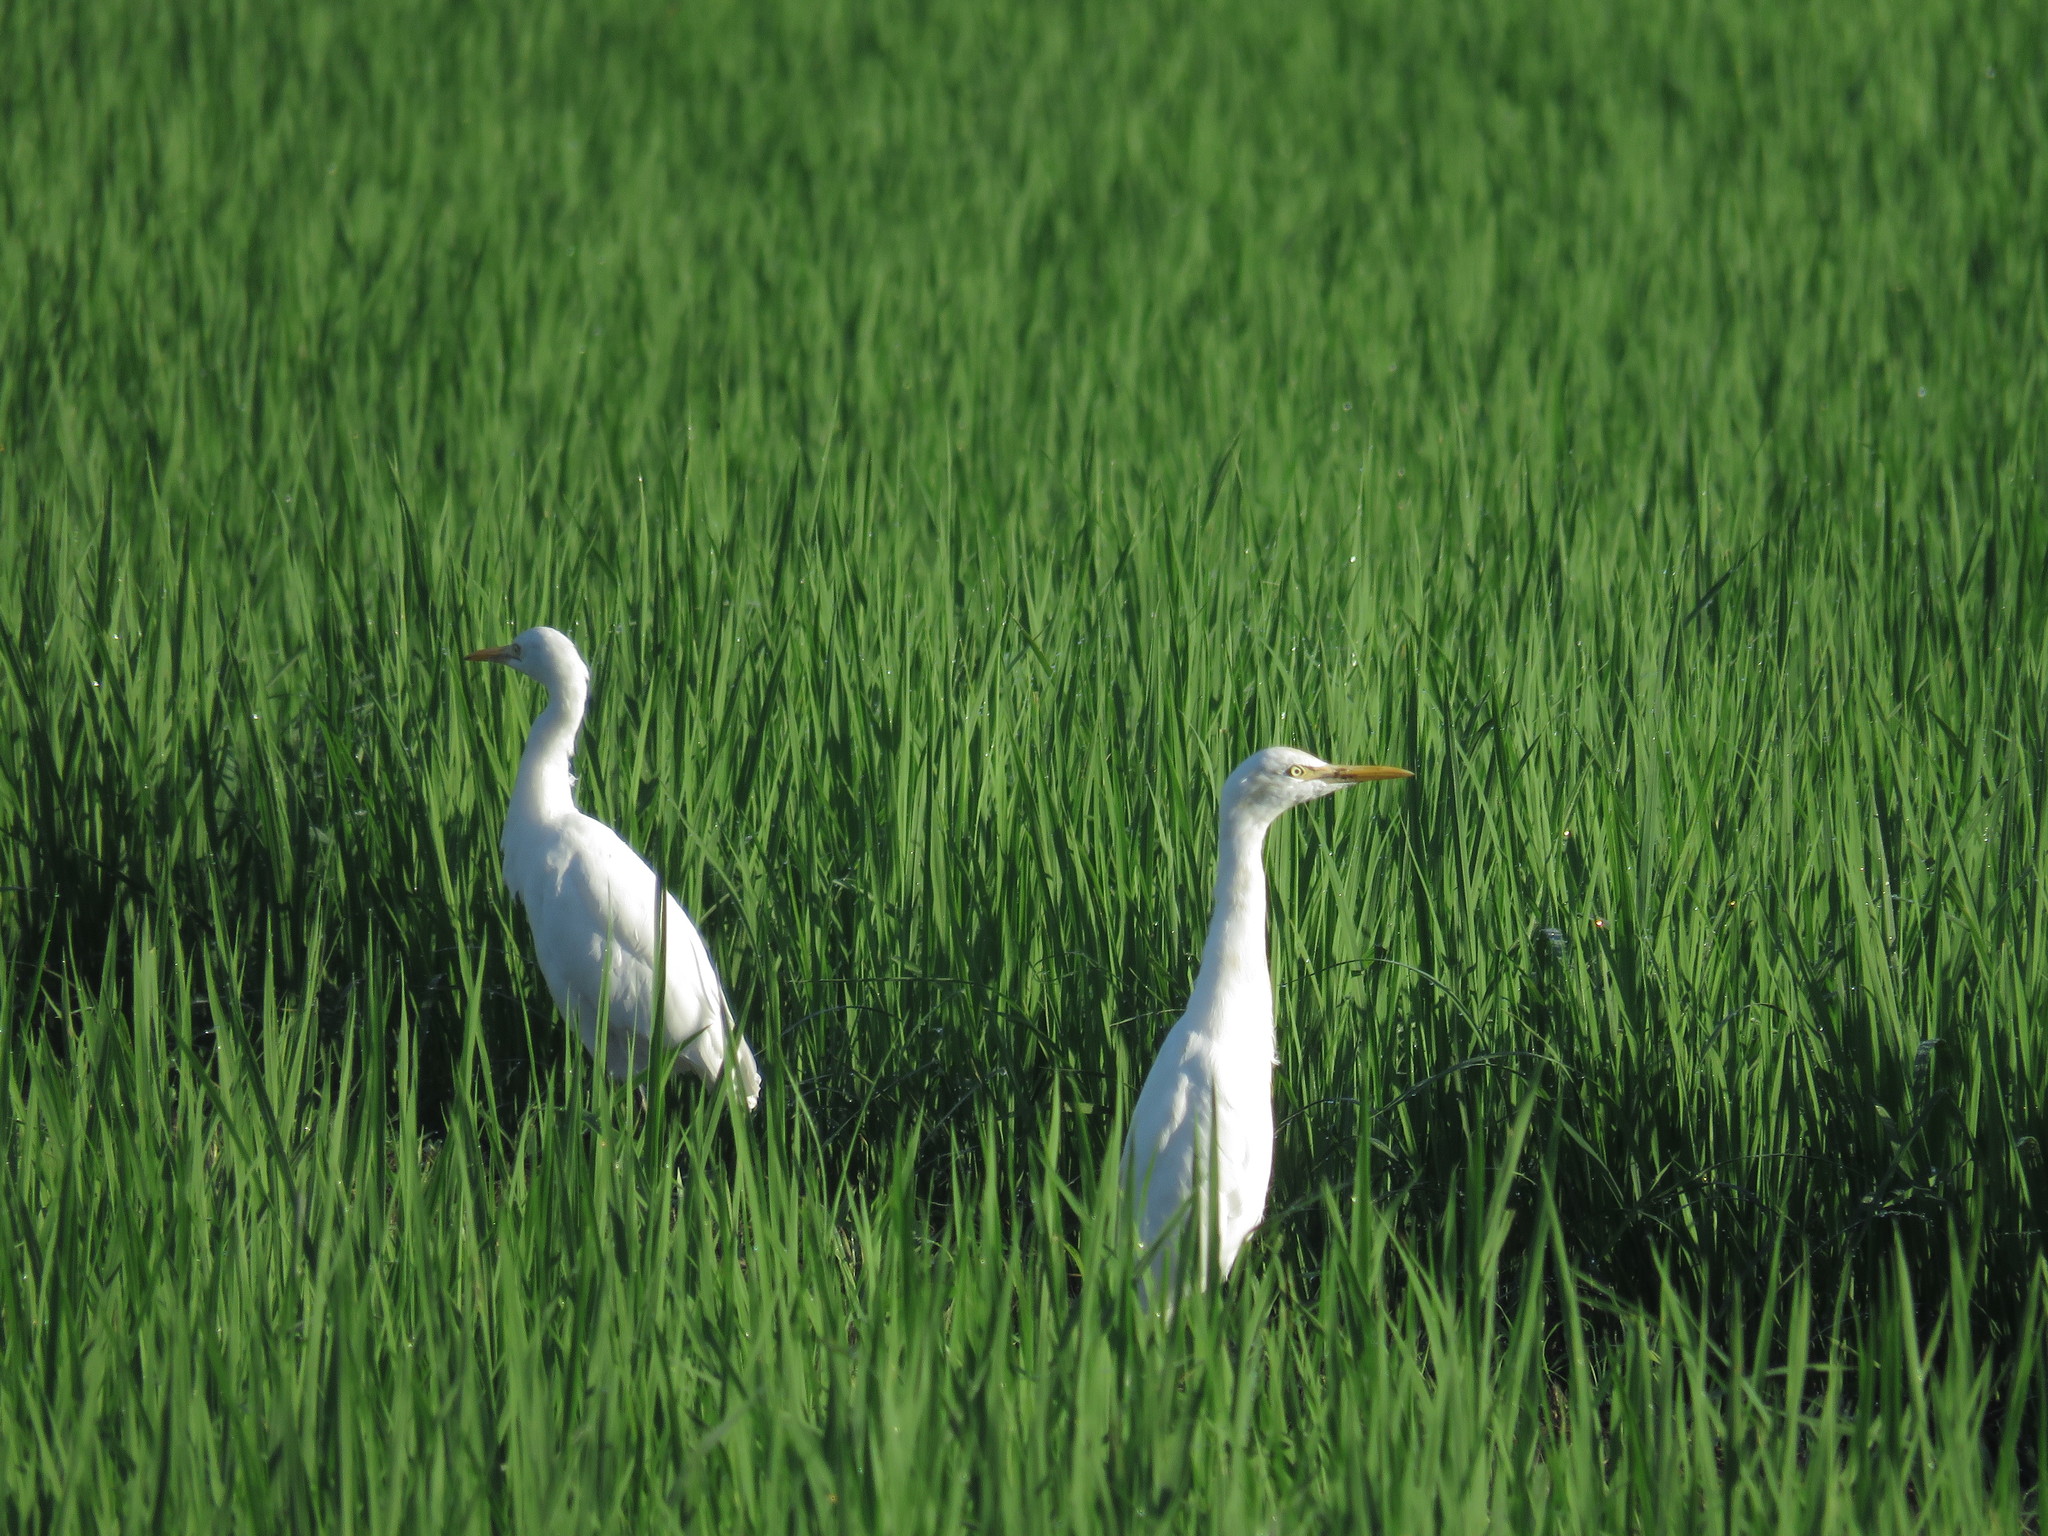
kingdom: Animalia
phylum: Chordata
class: Aves
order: Pelecaniformes
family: Ardeidae
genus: Bubulcus
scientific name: Bubulcus coromandus
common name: Eastern cattle egret
